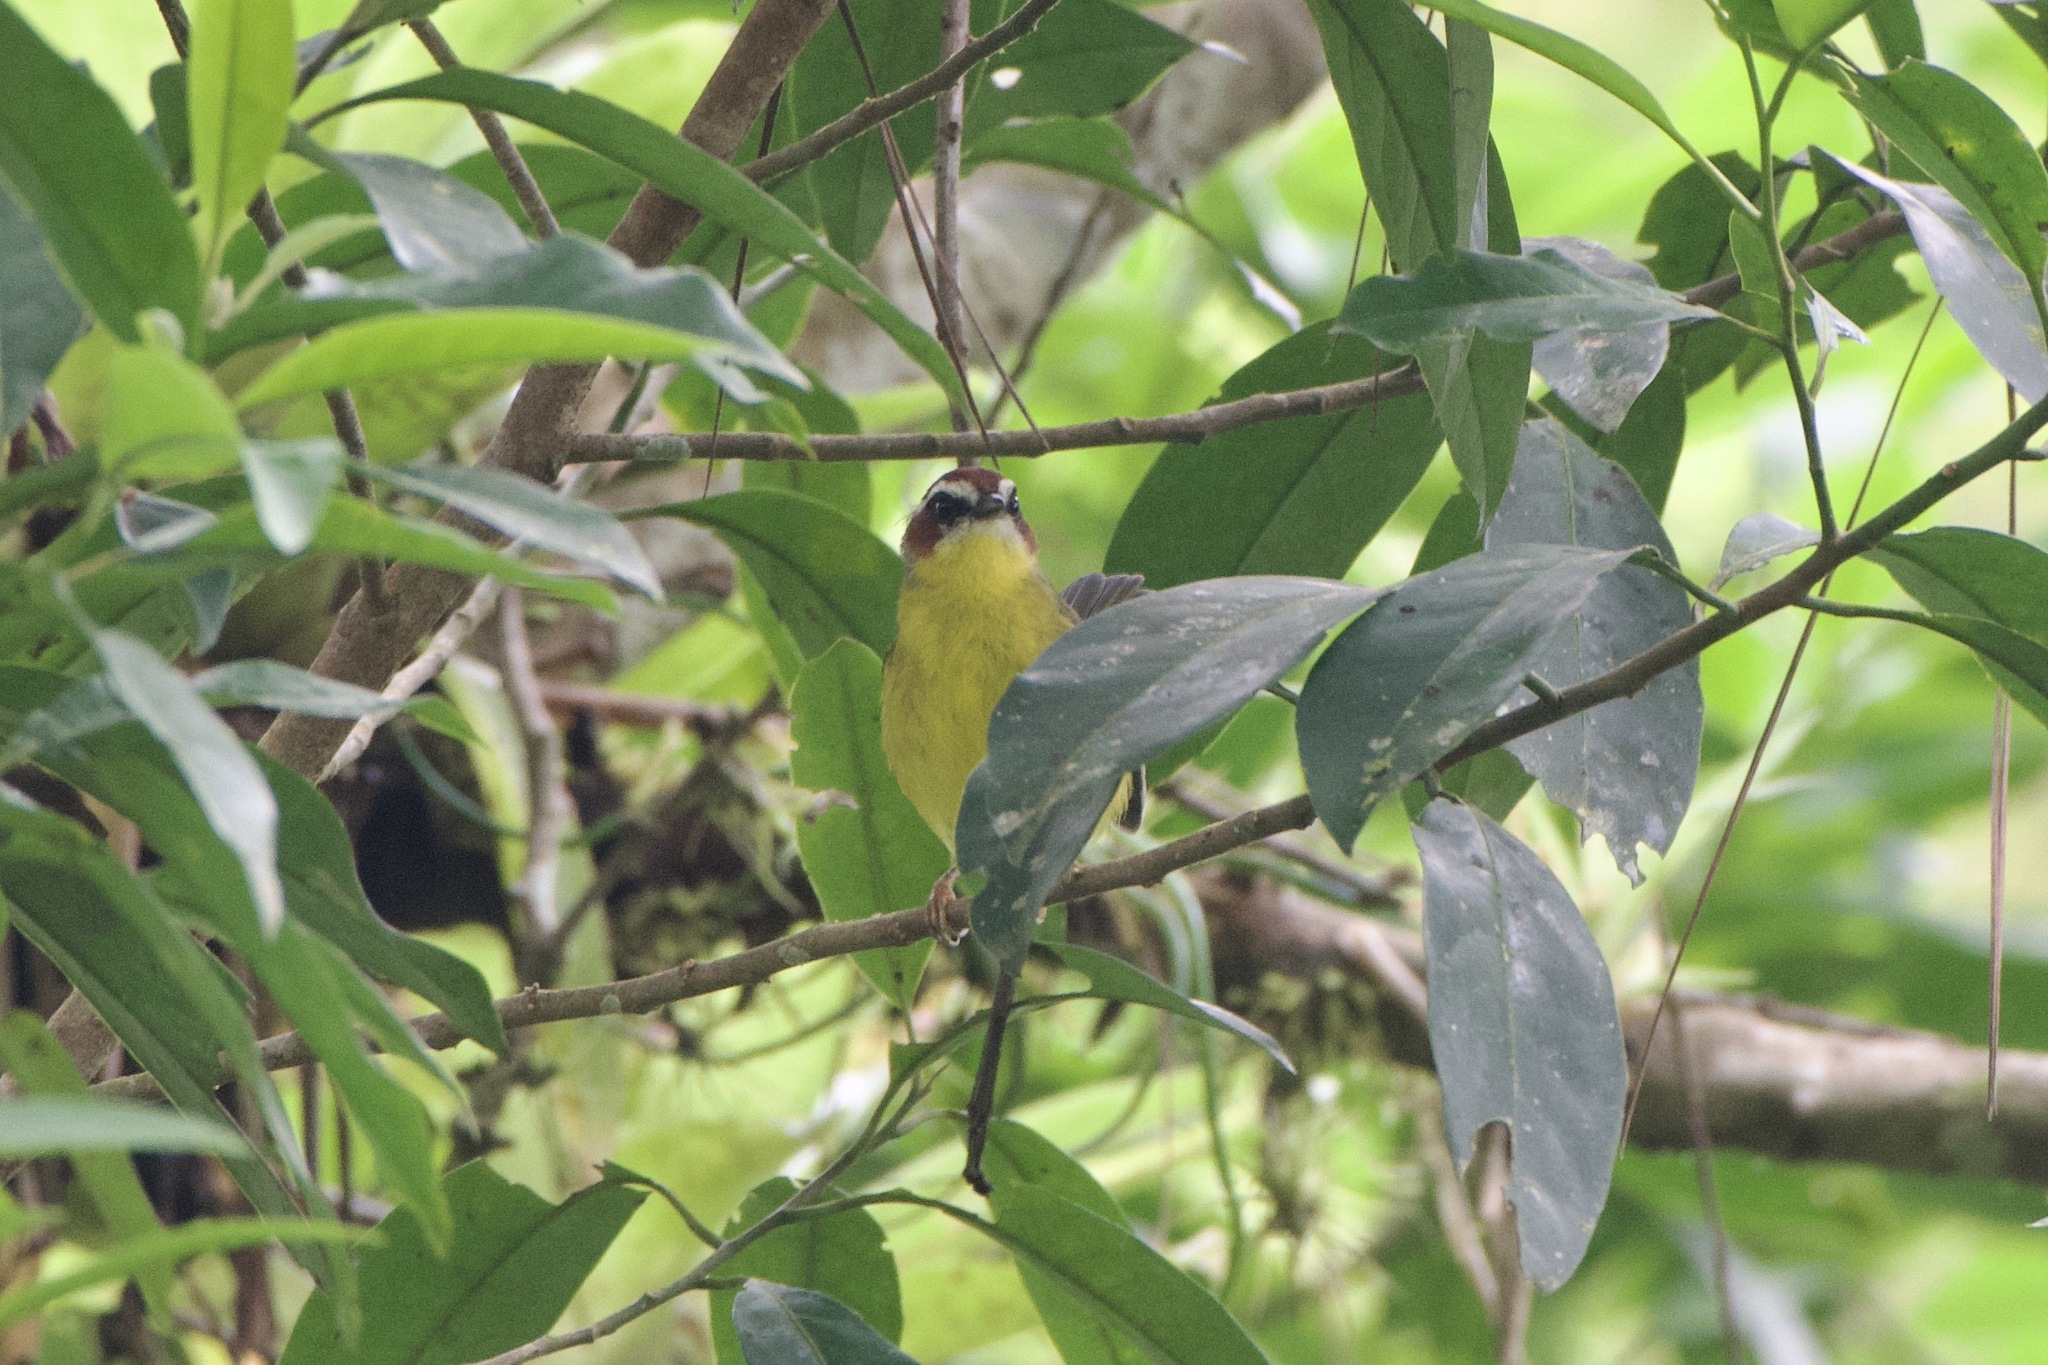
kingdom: Animalia
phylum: Chordata
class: Aves
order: Passeriformes
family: Parulidae
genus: Basileuterus
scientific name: Basileuterus rufifrons
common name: Rufous-capped warbler
